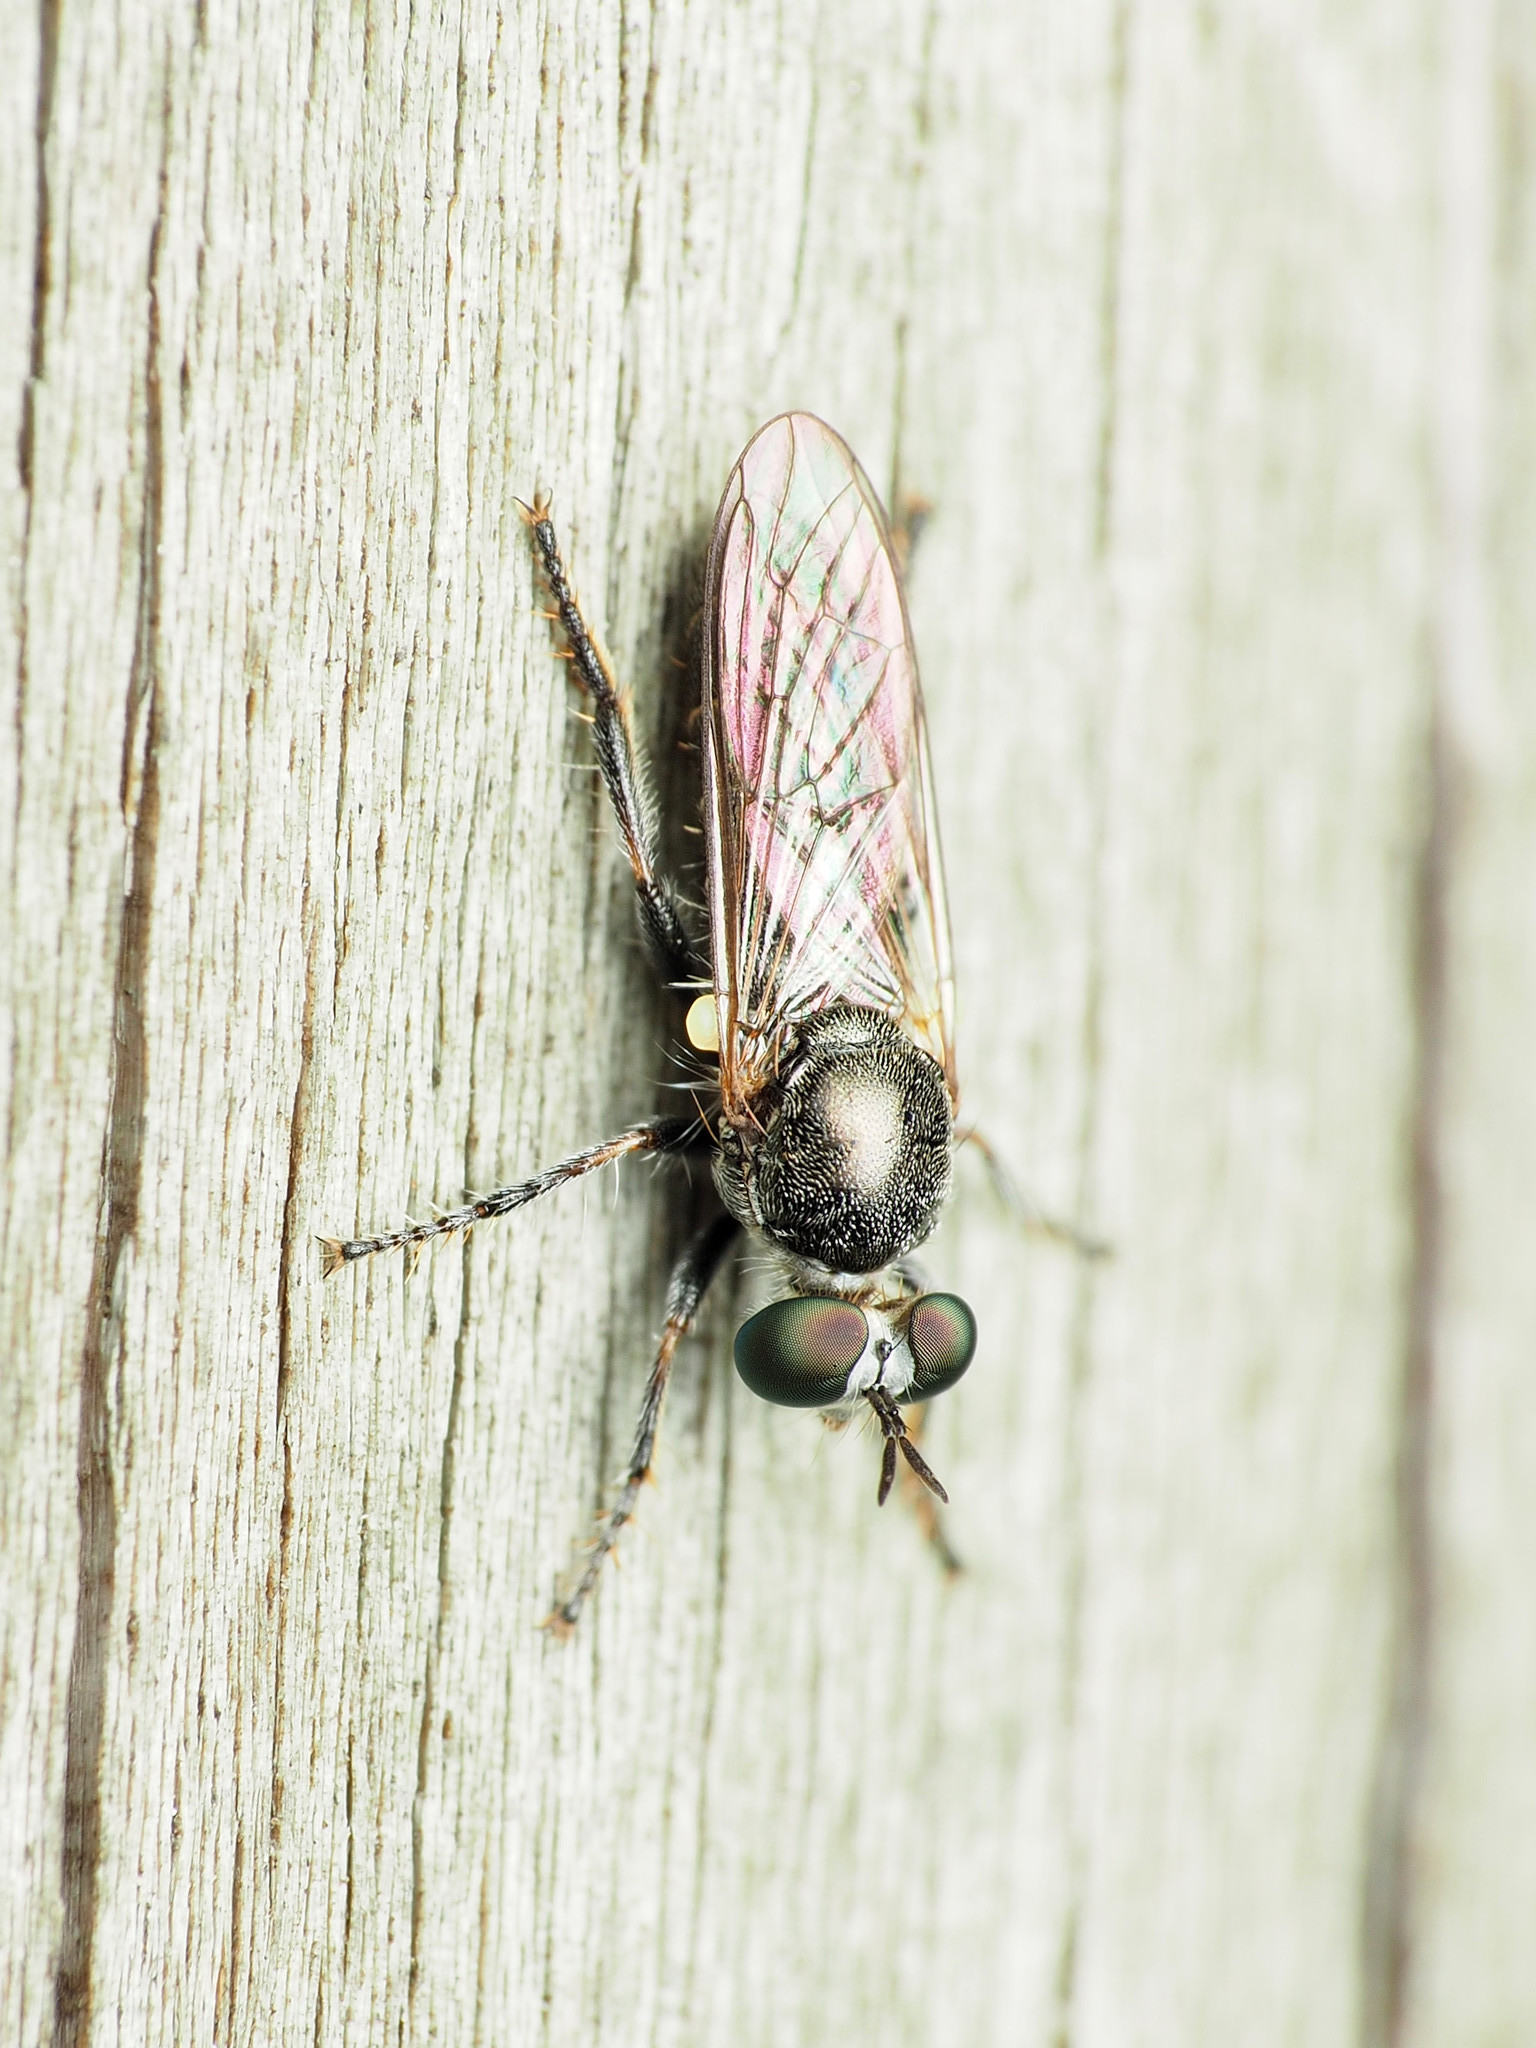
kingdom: Animalia
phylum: Arthropoda
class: Insecta
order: Diptera
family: Asilidae
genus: Atomosia
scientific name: Atomosia puella
